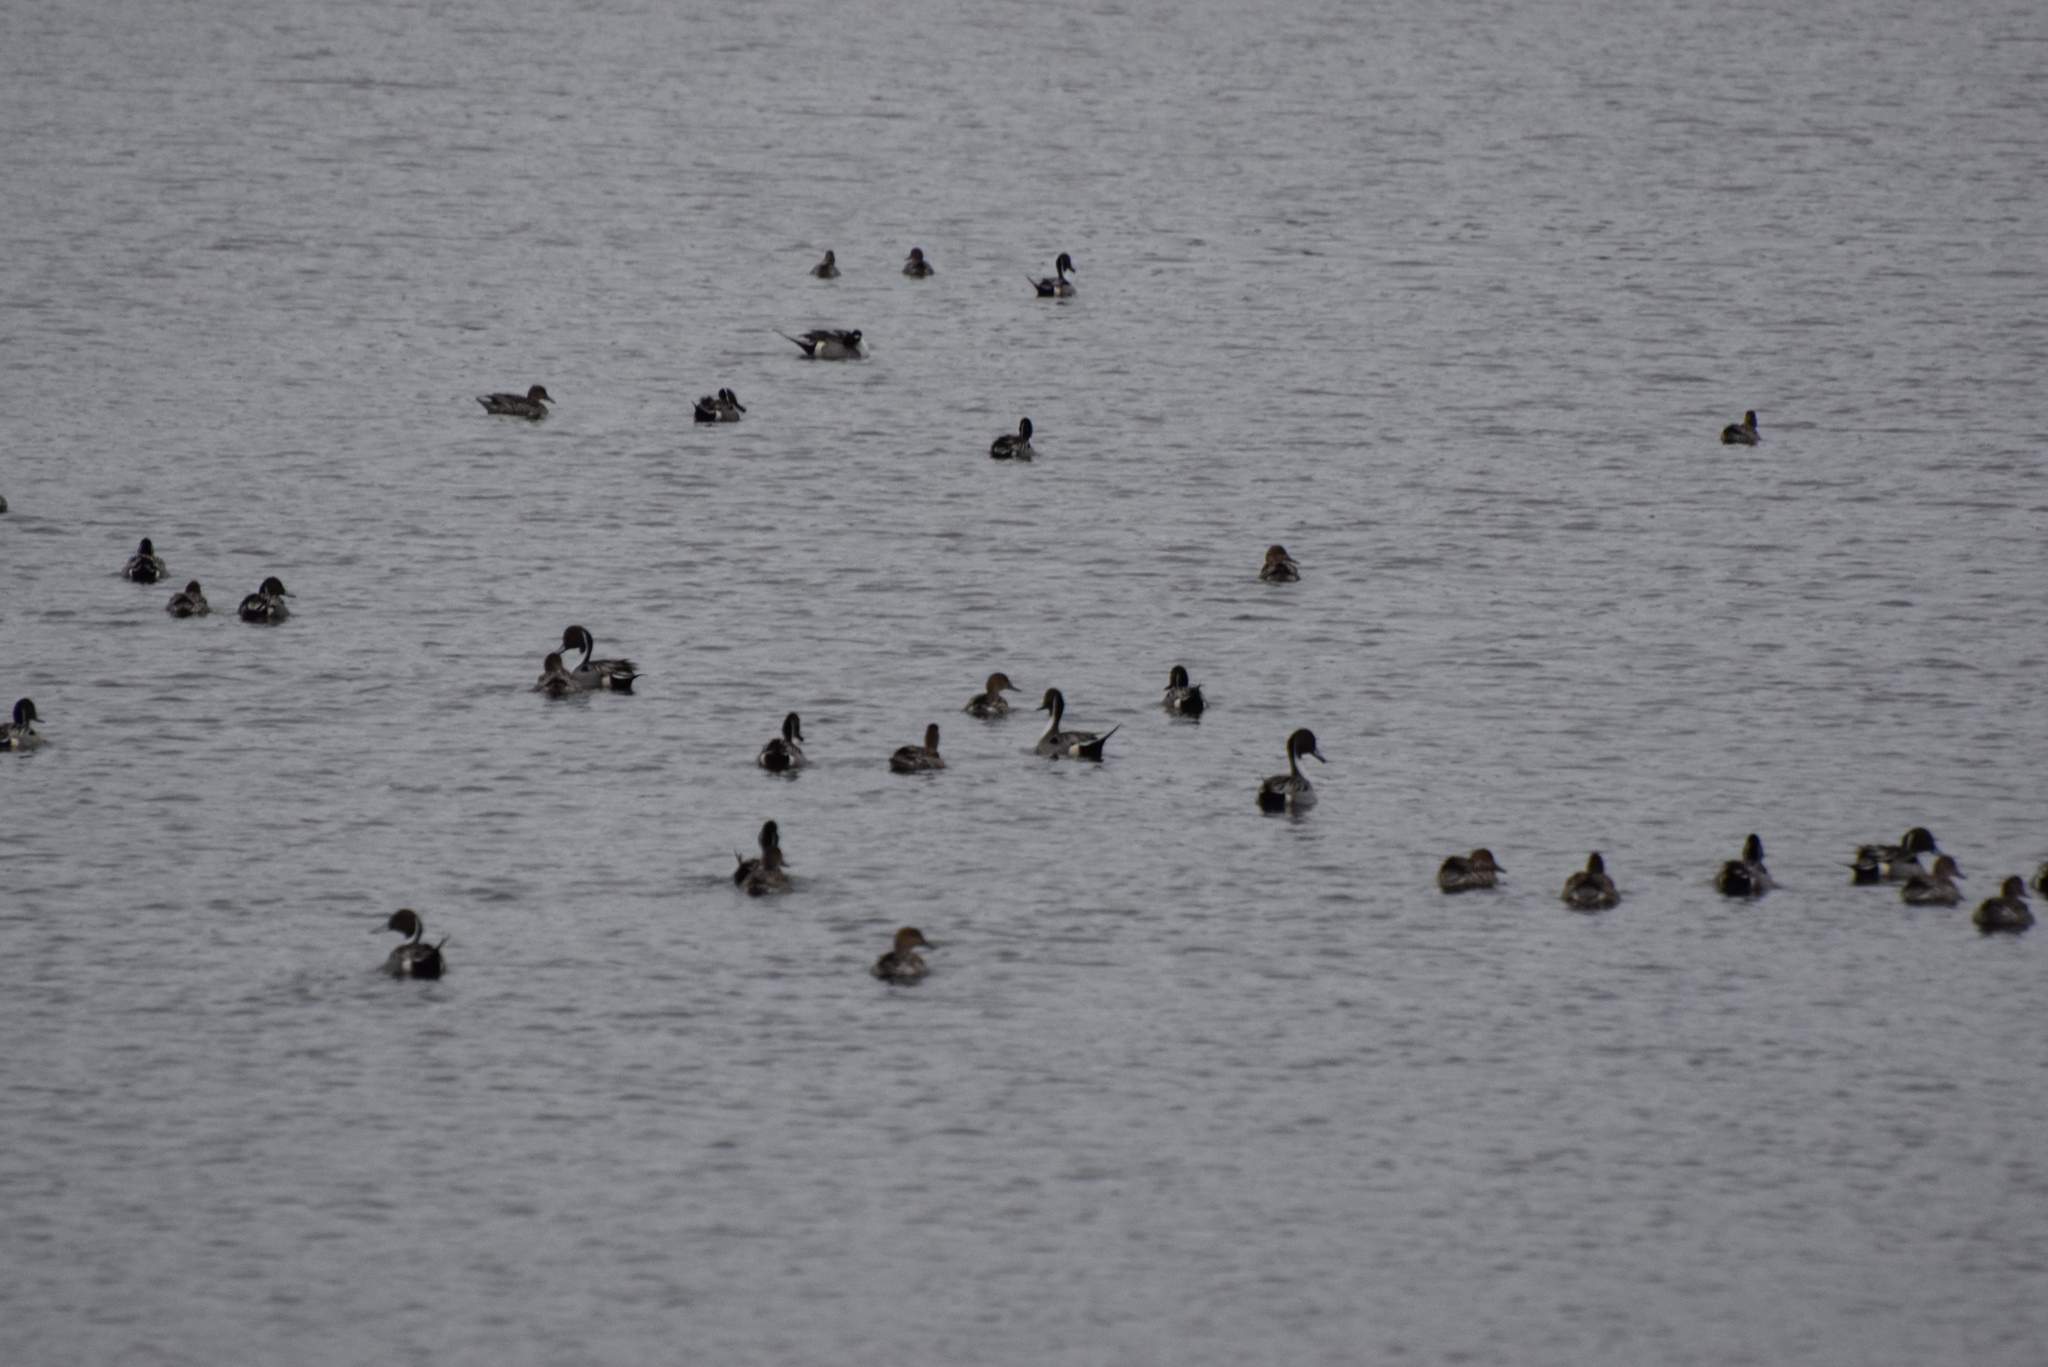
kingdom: Animalia
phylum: Chordata
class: Aves
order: Anseriformes
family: Anatidae
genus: Anas
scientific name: Anas acuta
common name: Northern pintail
